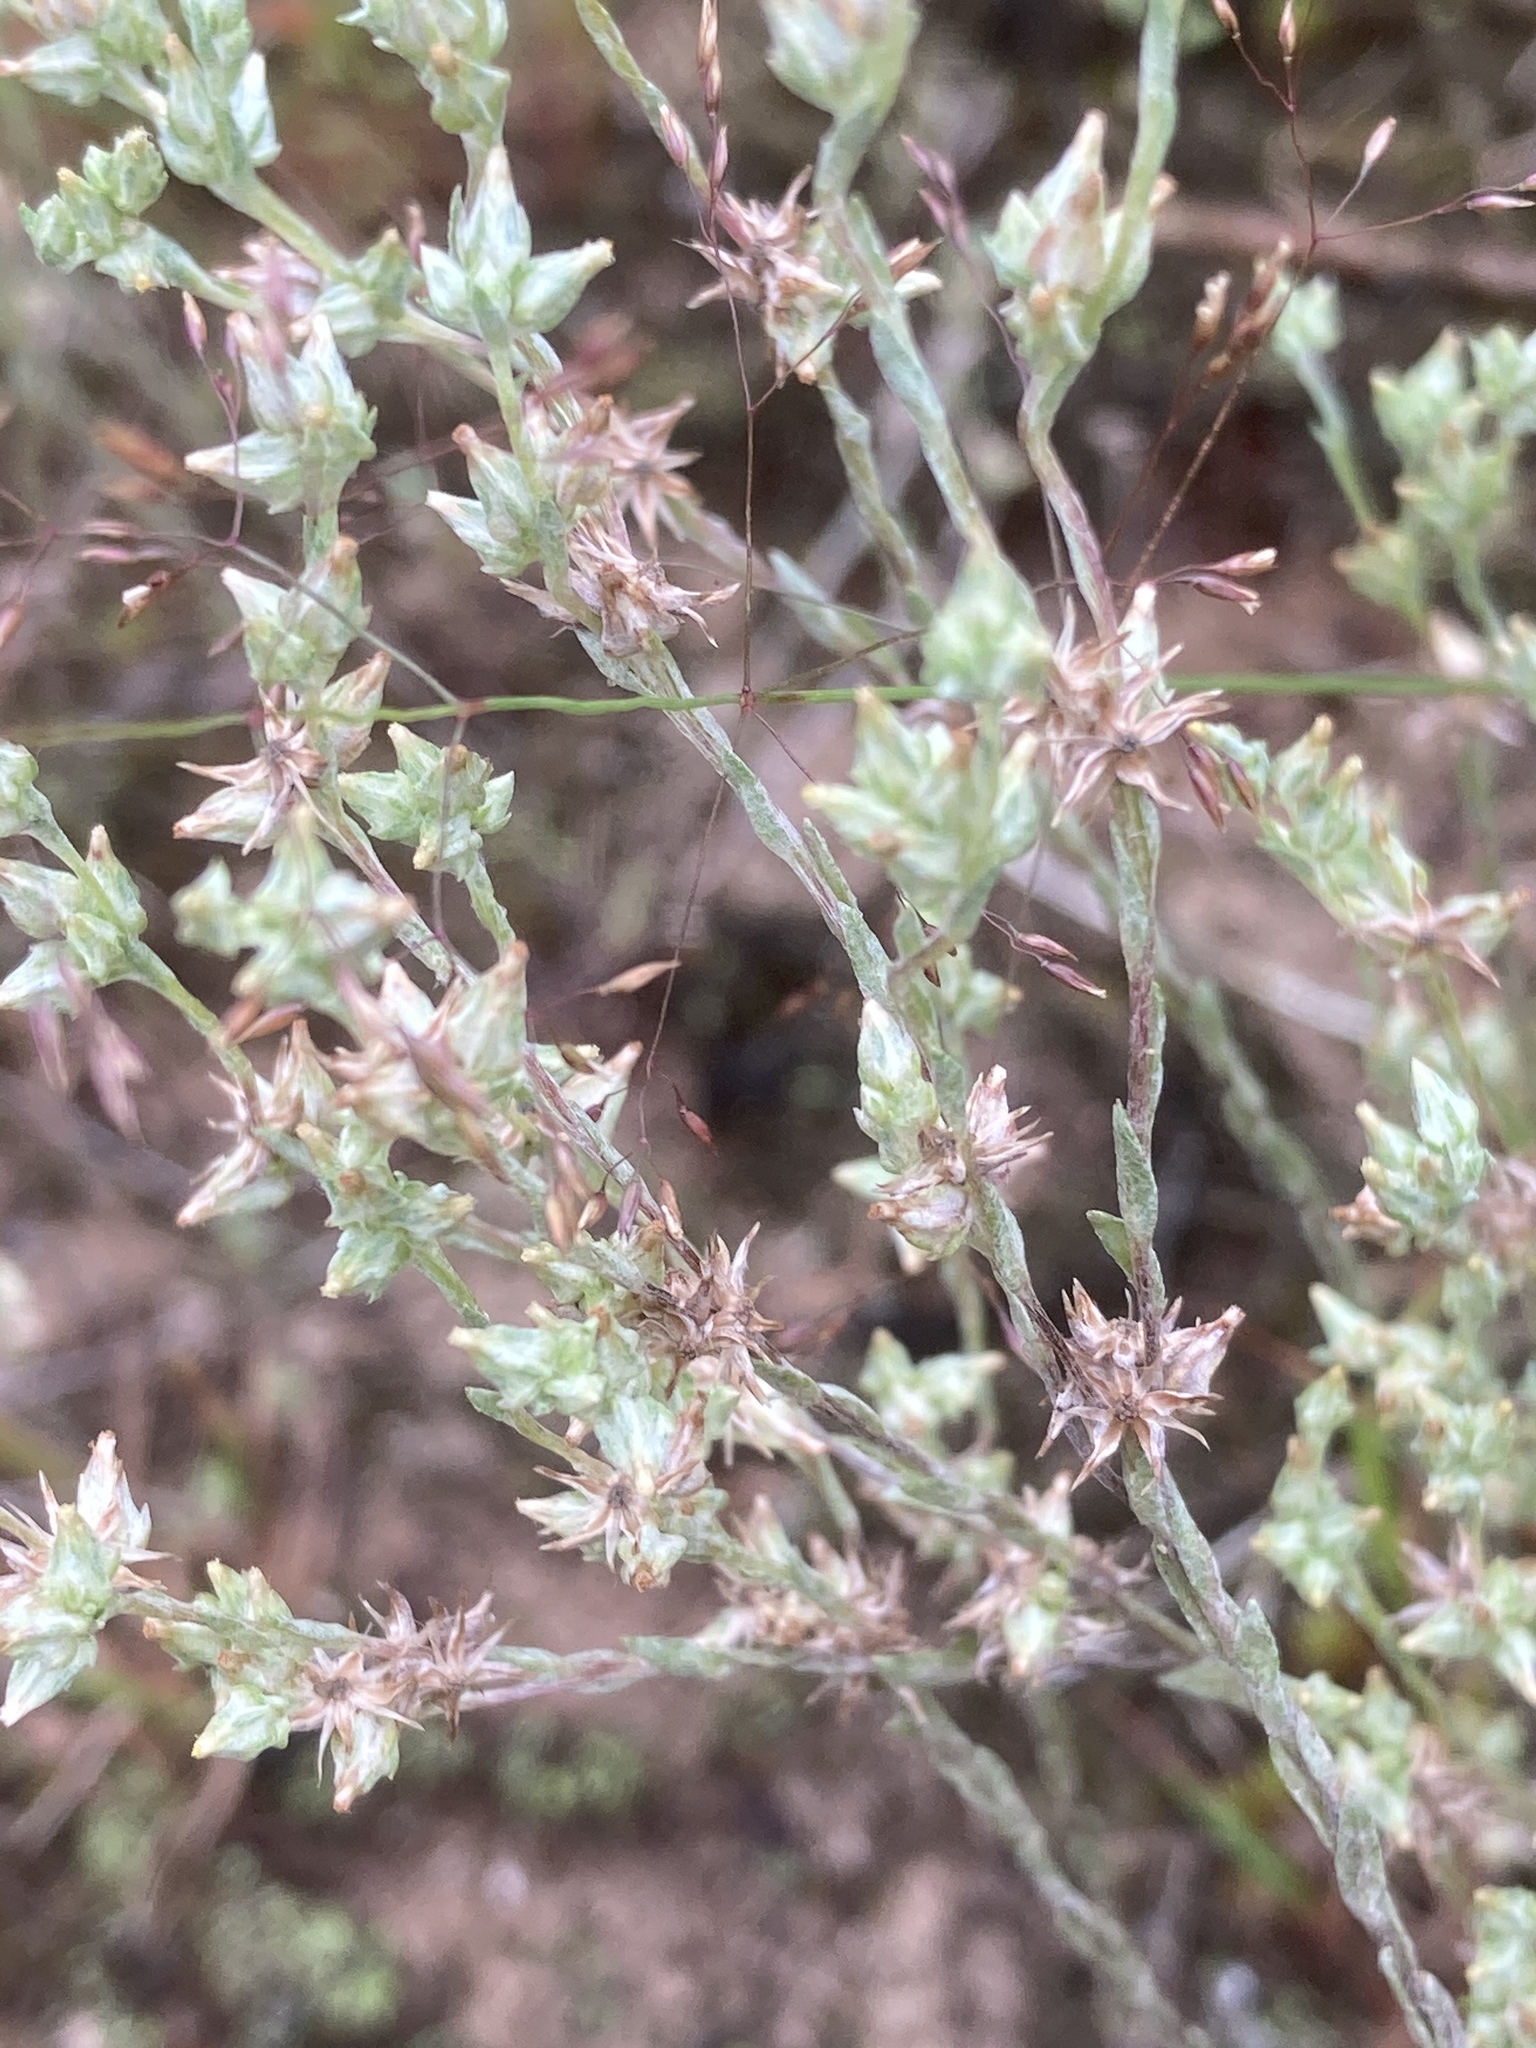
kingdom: Plantae
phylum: Tracheophyta
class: Magnoliopsida
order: Asterales
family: Asteraceae
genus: Logfia
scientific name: Logfia minima
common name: Little cottonrose
